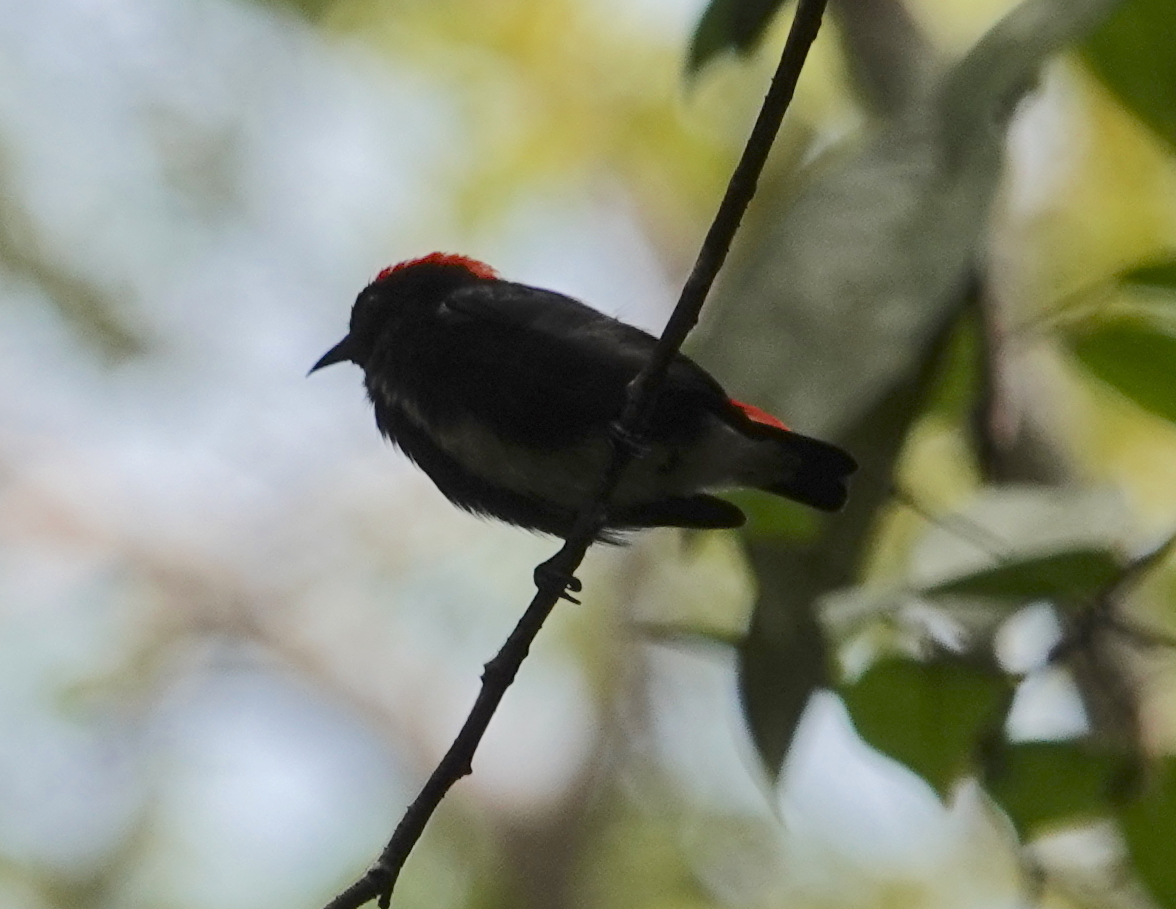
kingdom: Animalia
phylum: Chordata
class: Aves
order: Passeriformes
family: Dicaeidae
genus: Dicaeum
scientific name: Dicaeum cruentatum
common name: Scarlet-backed flowerpecker
